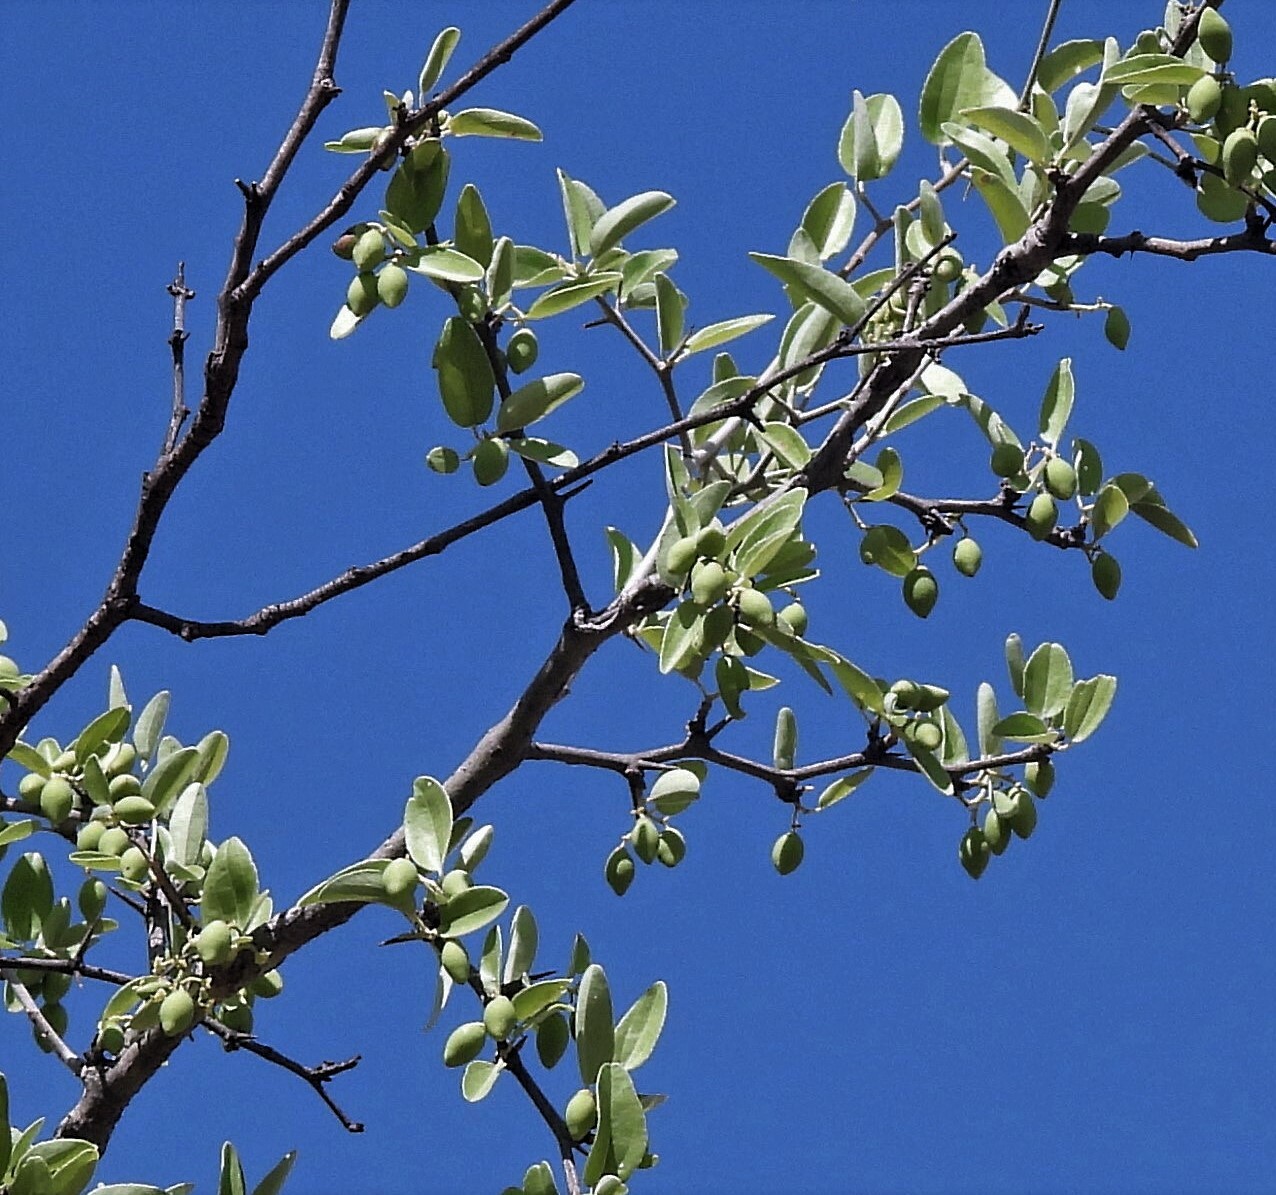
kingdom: Plantae
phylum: Tracheophyta
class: Magnoliopsida
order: Rosales
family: Rhamnaceae
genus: Sarcomphalus
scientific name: Sarcomphalus mistol
